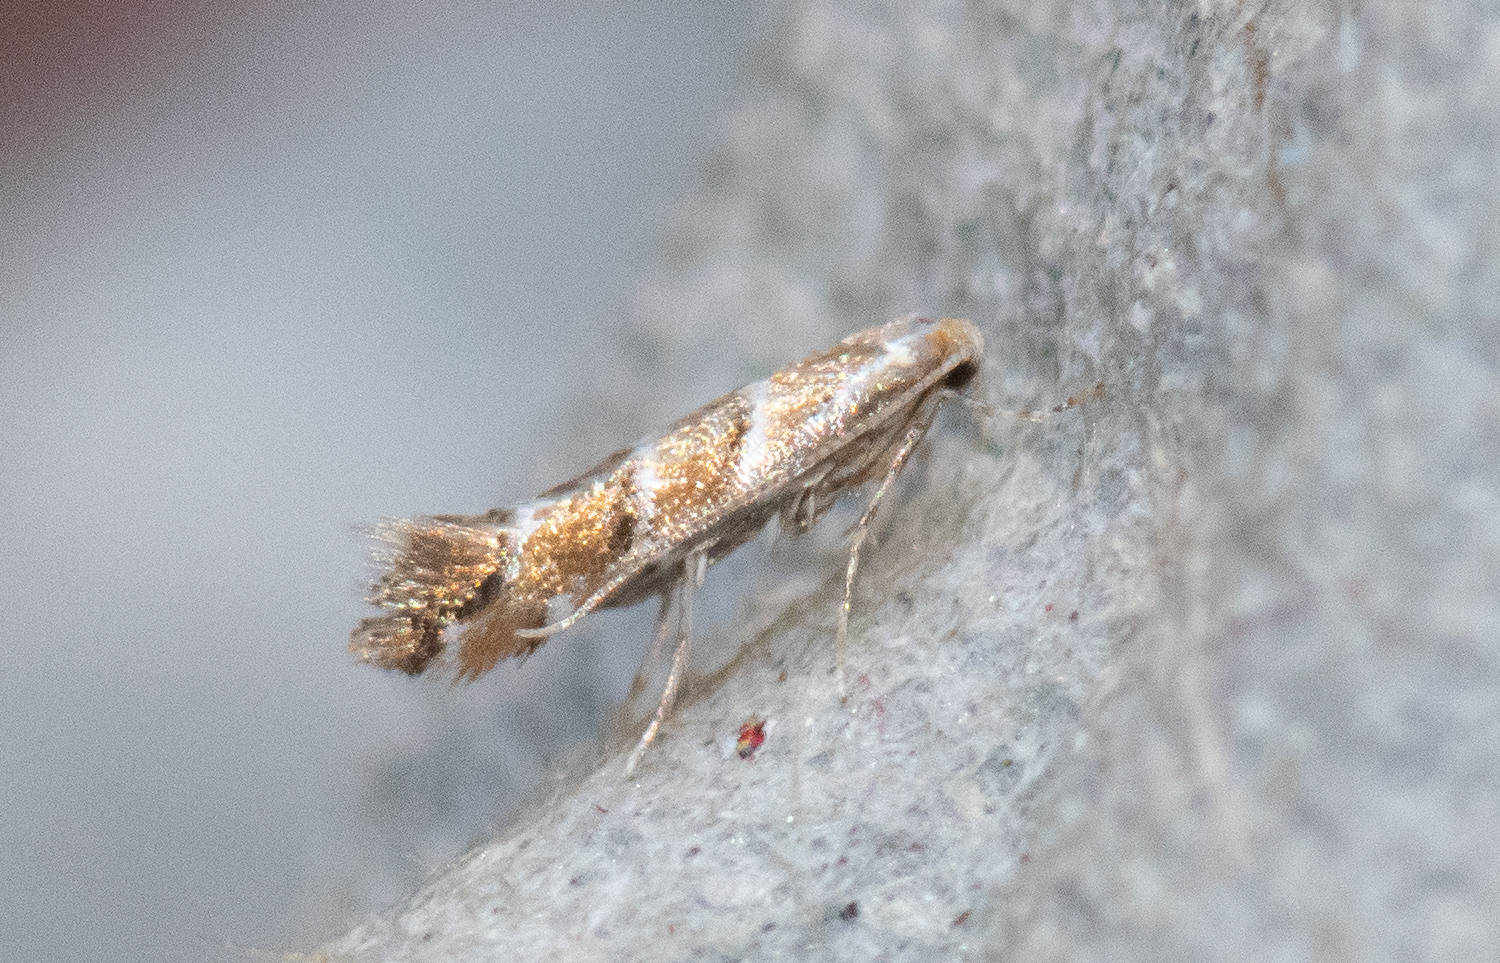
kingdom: Animalia
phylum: Arthropoda
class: Insecta
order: Lepidoptera
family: Gracillariidae
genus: Cameraria
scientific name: Cameraria ohridella
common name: Horse-chestnut leaf-miner
